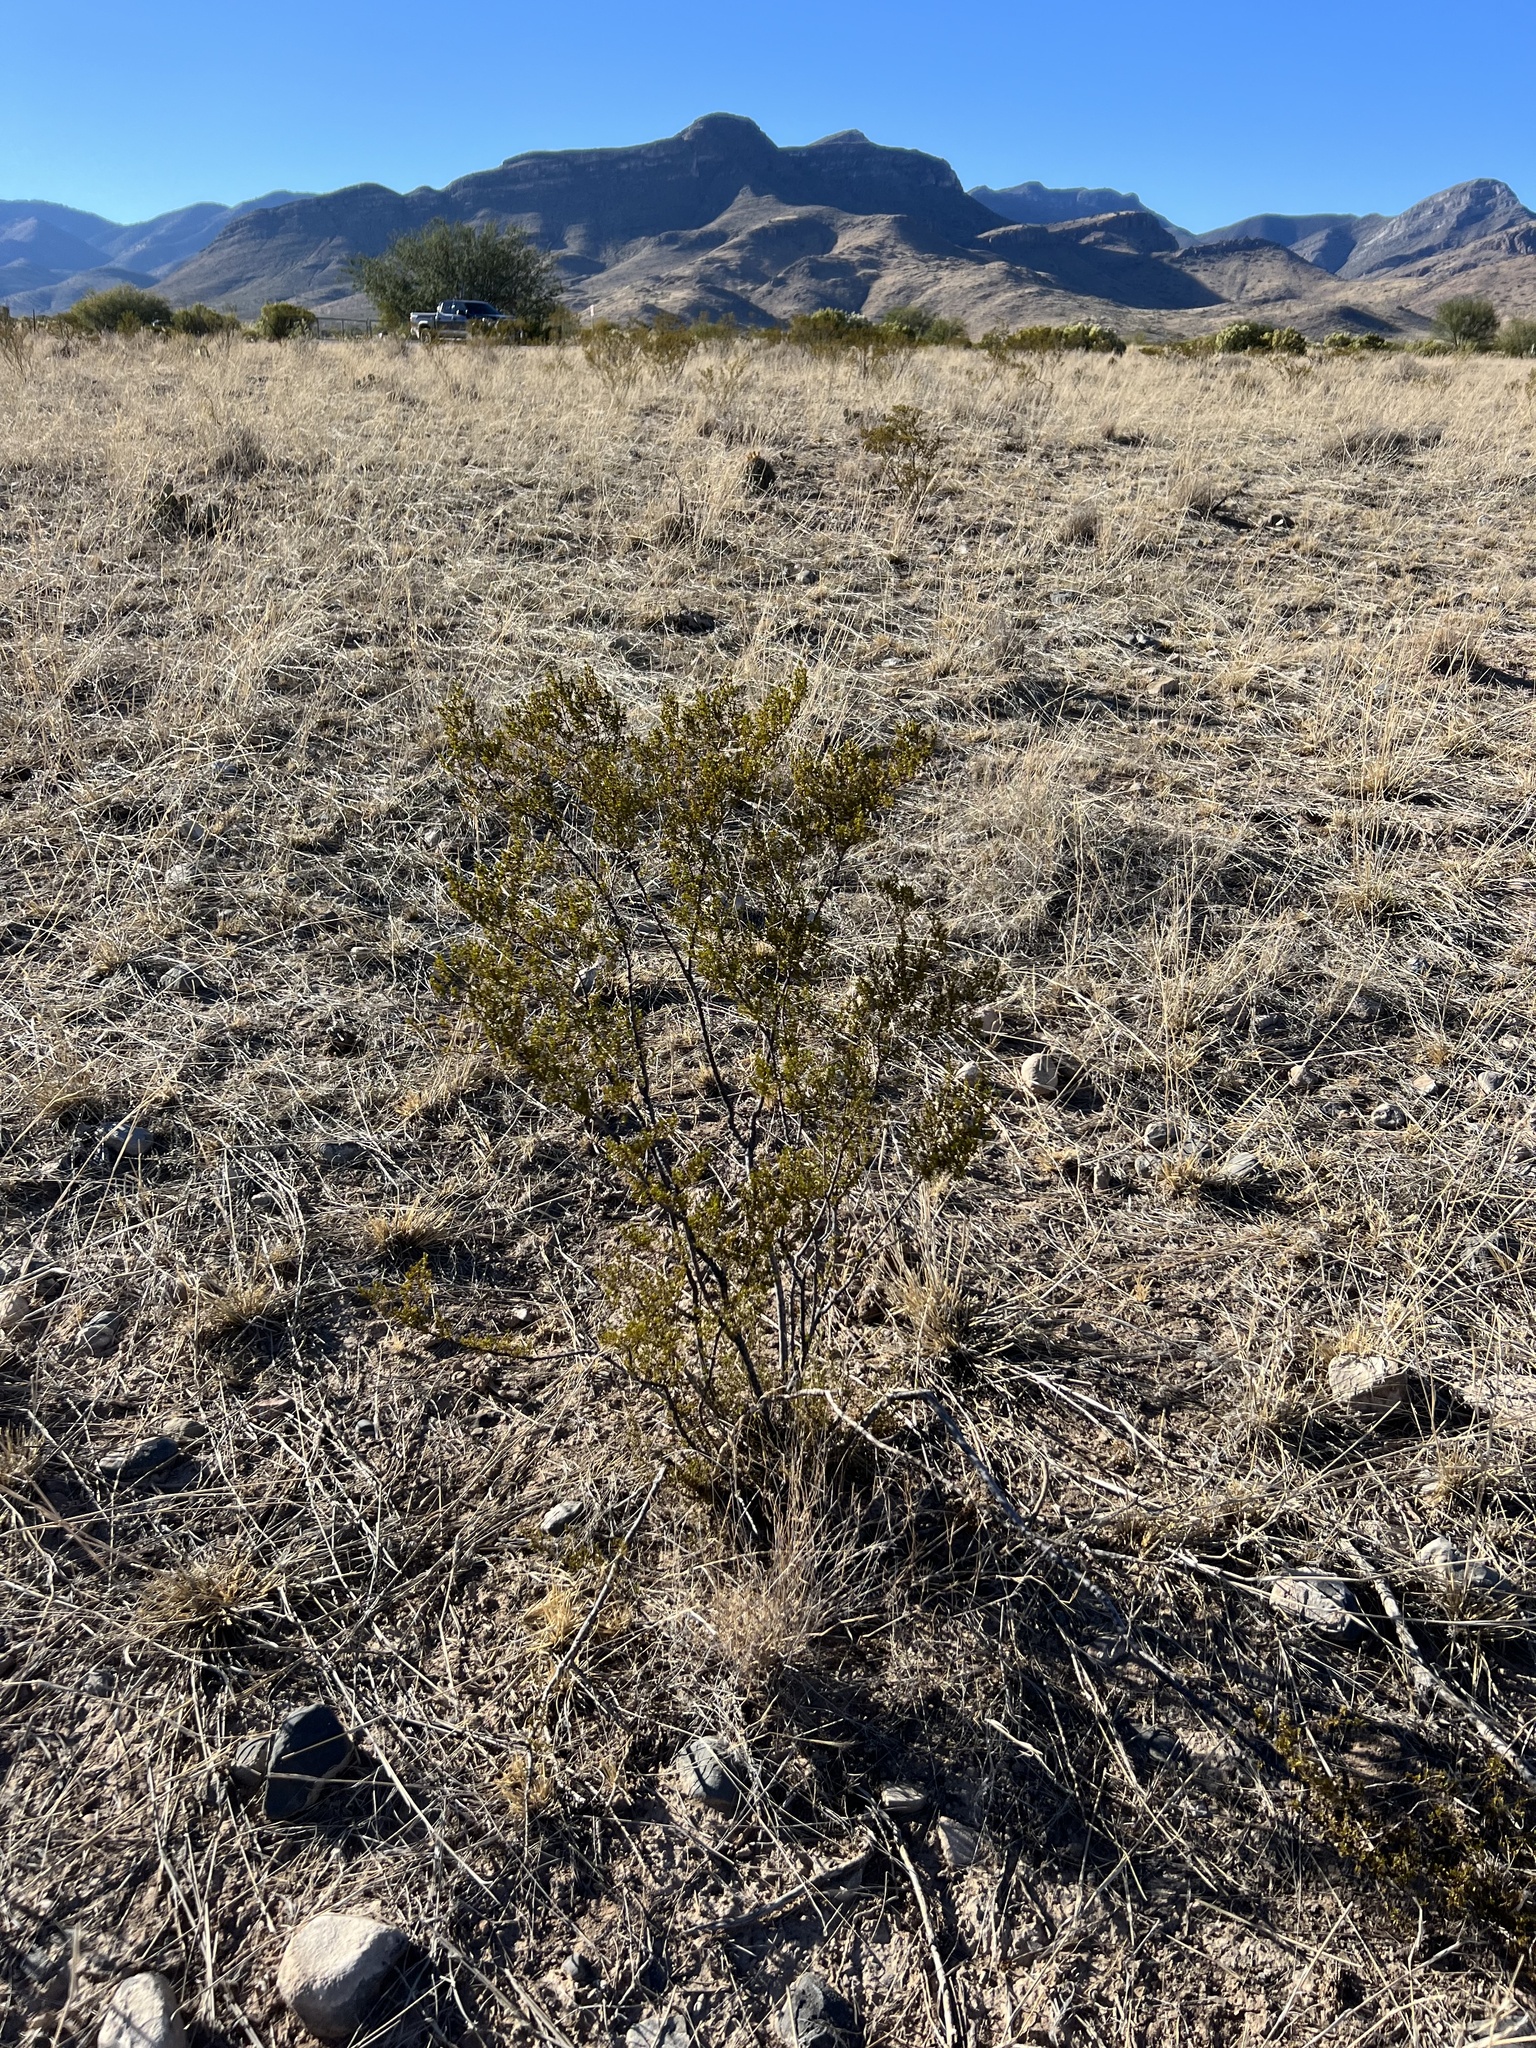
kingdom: Plantae
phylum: Tracheophyta
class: Magnoliopsida
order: Zygophyllales
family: Zygophyllaceae
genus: Larrea
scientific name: Larrea tridentata
